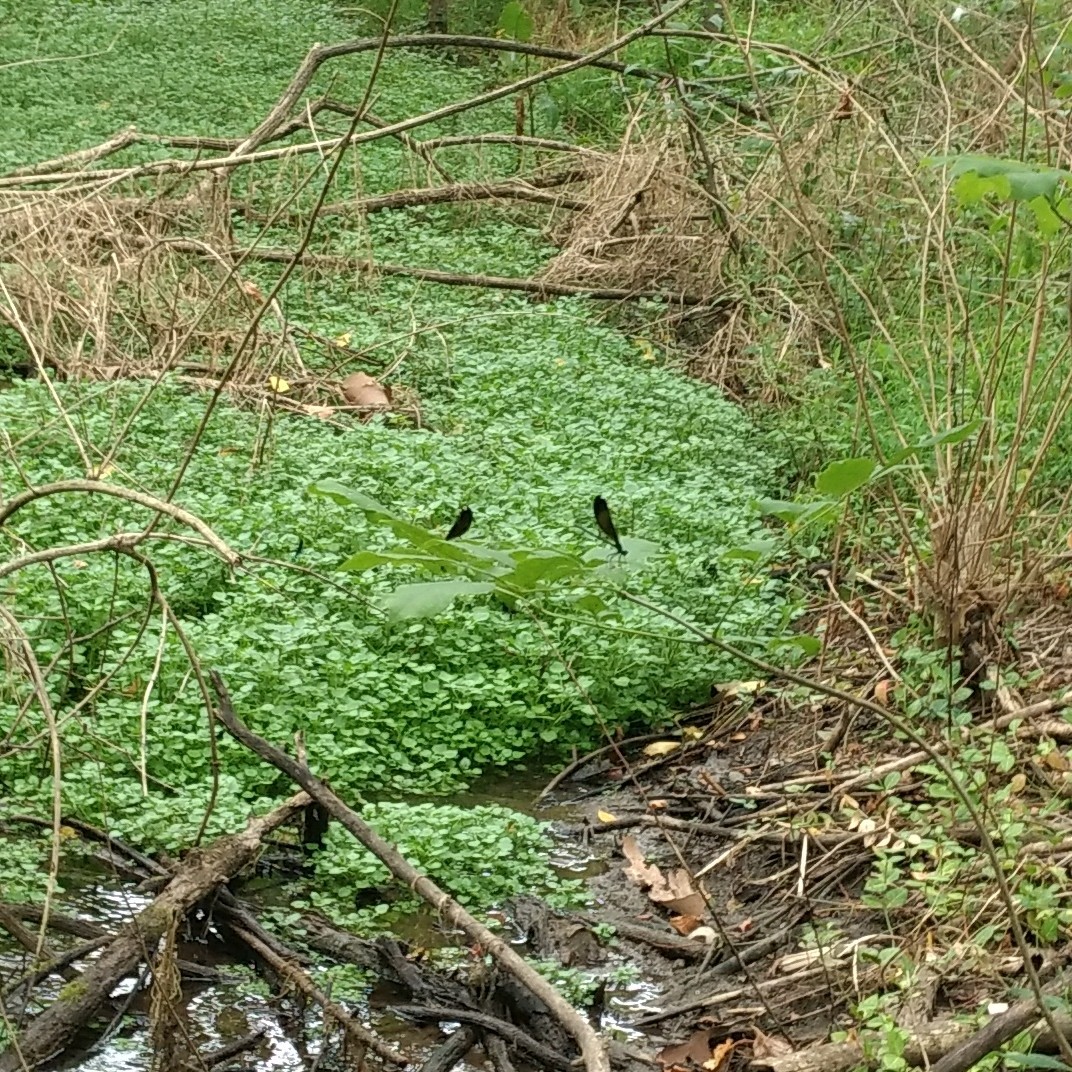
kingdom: Animalia
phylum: Arthropoda
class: Insecta
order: Odonata
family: Calopterygidae
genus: Calopteryx
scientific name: Calopteryx maculata
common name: Ebony jewelwing
